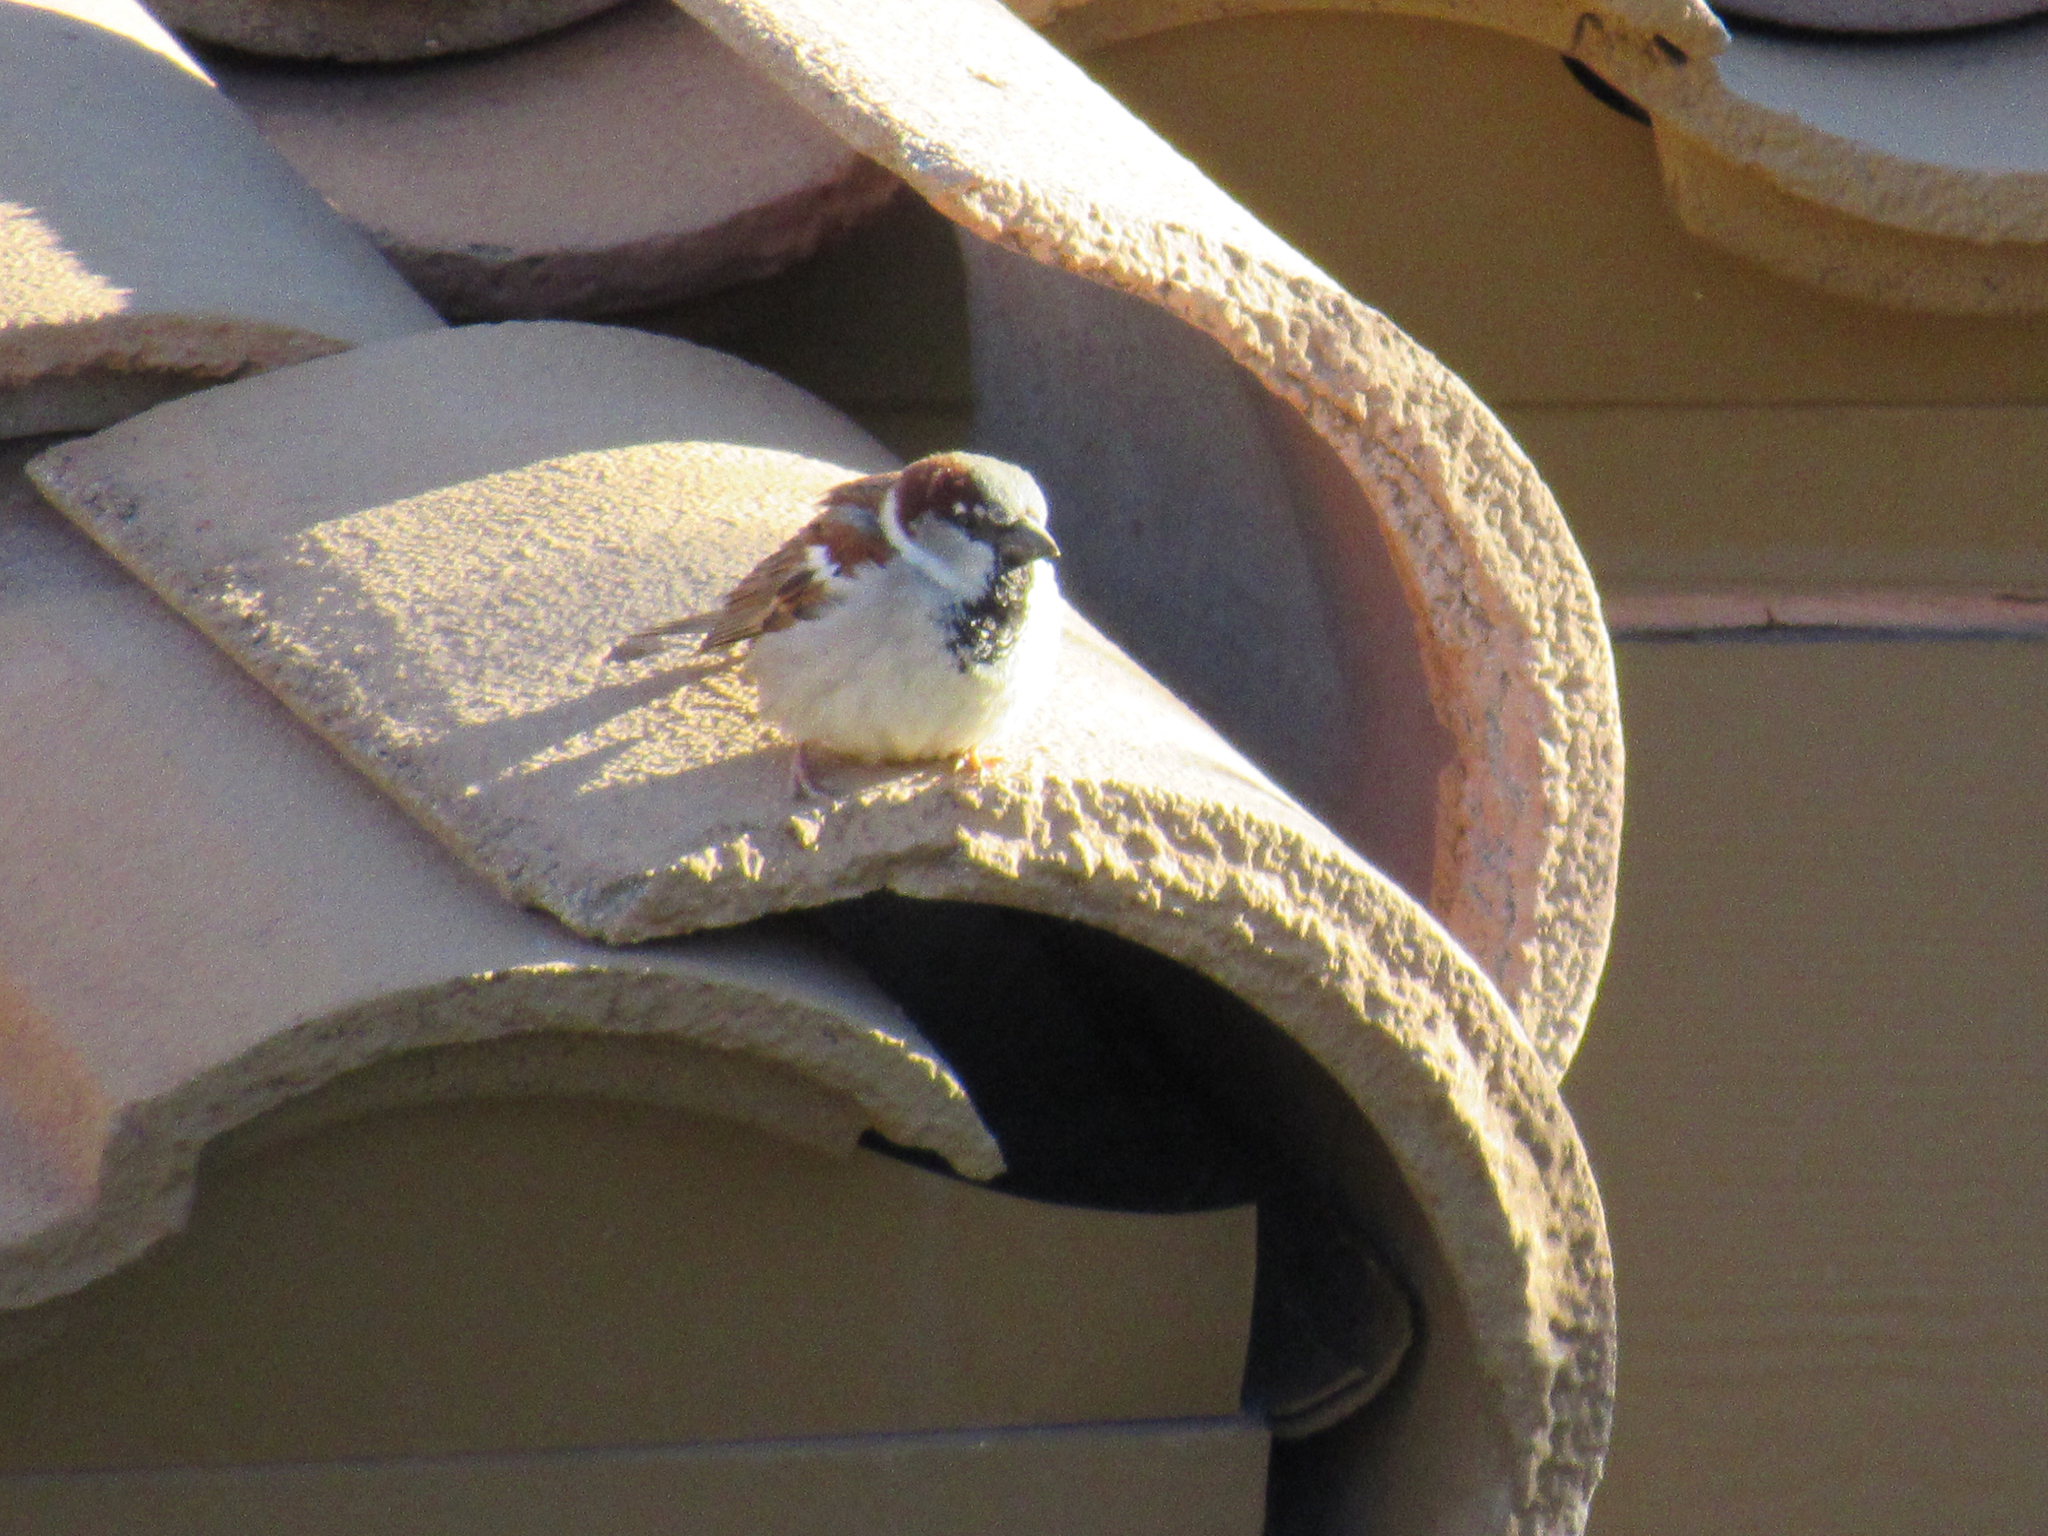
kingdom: Animalia
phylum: Chordata
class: Aves
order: Passeriformes
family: Passeridae
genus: Passer
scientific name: Passer domesticus
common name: House sparrow
